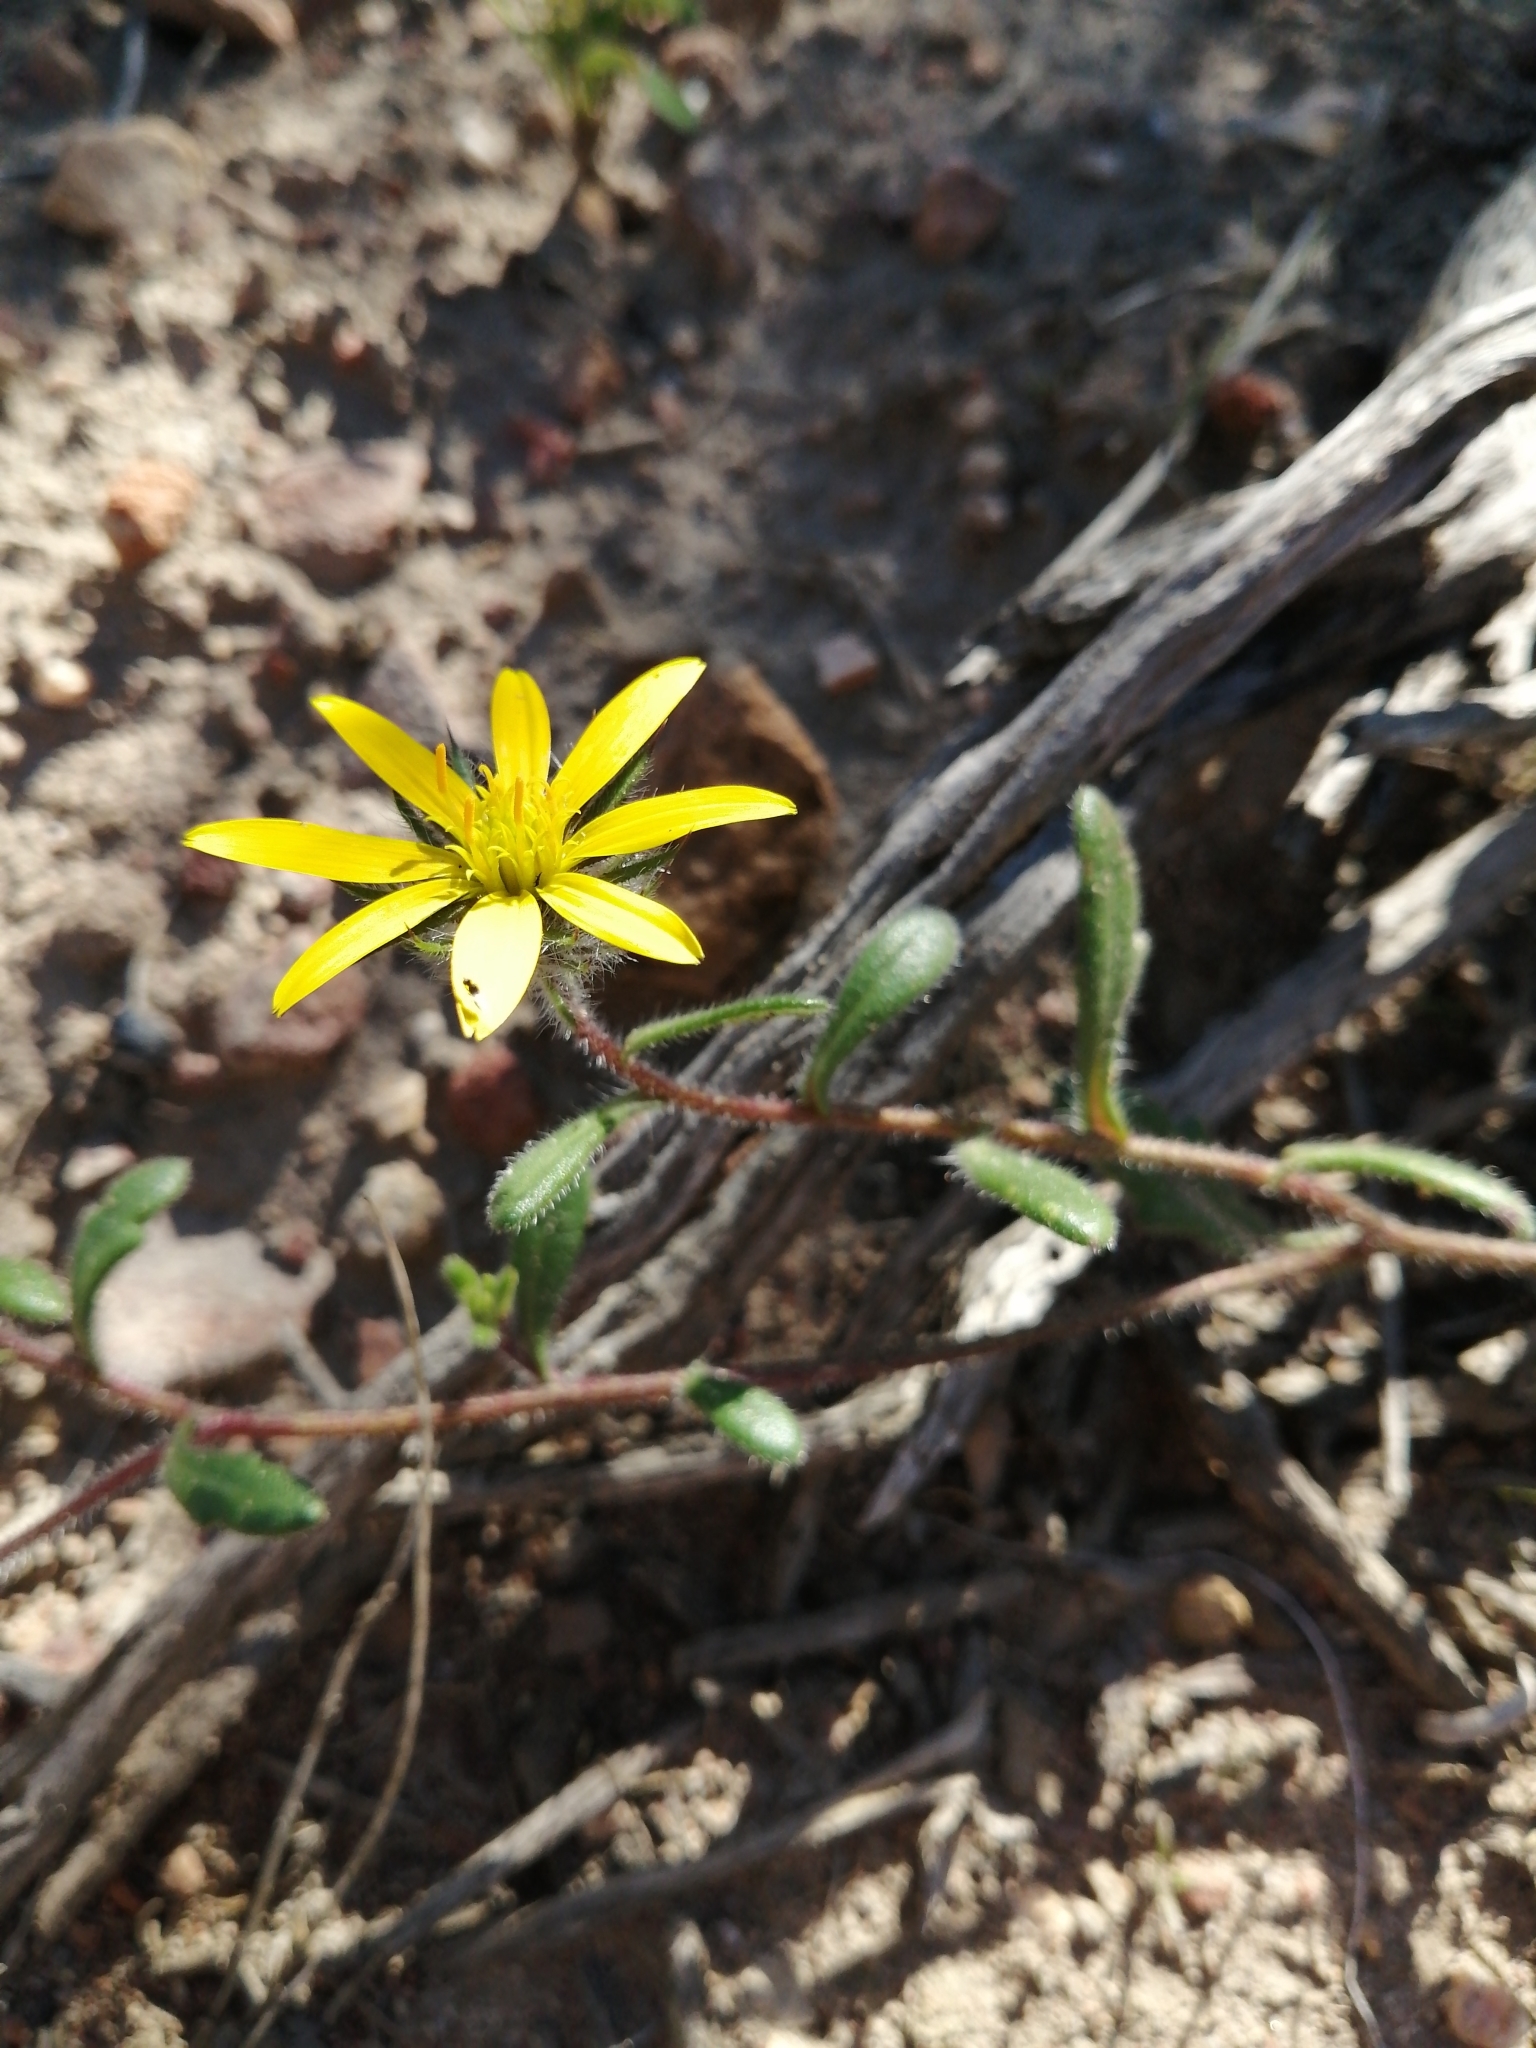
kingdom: Plantae
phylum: Tracheophyta
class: Magnoliopsida
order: Asterales
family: Asteraceae
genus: Gorteria
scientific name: Gorteria piloselloides
